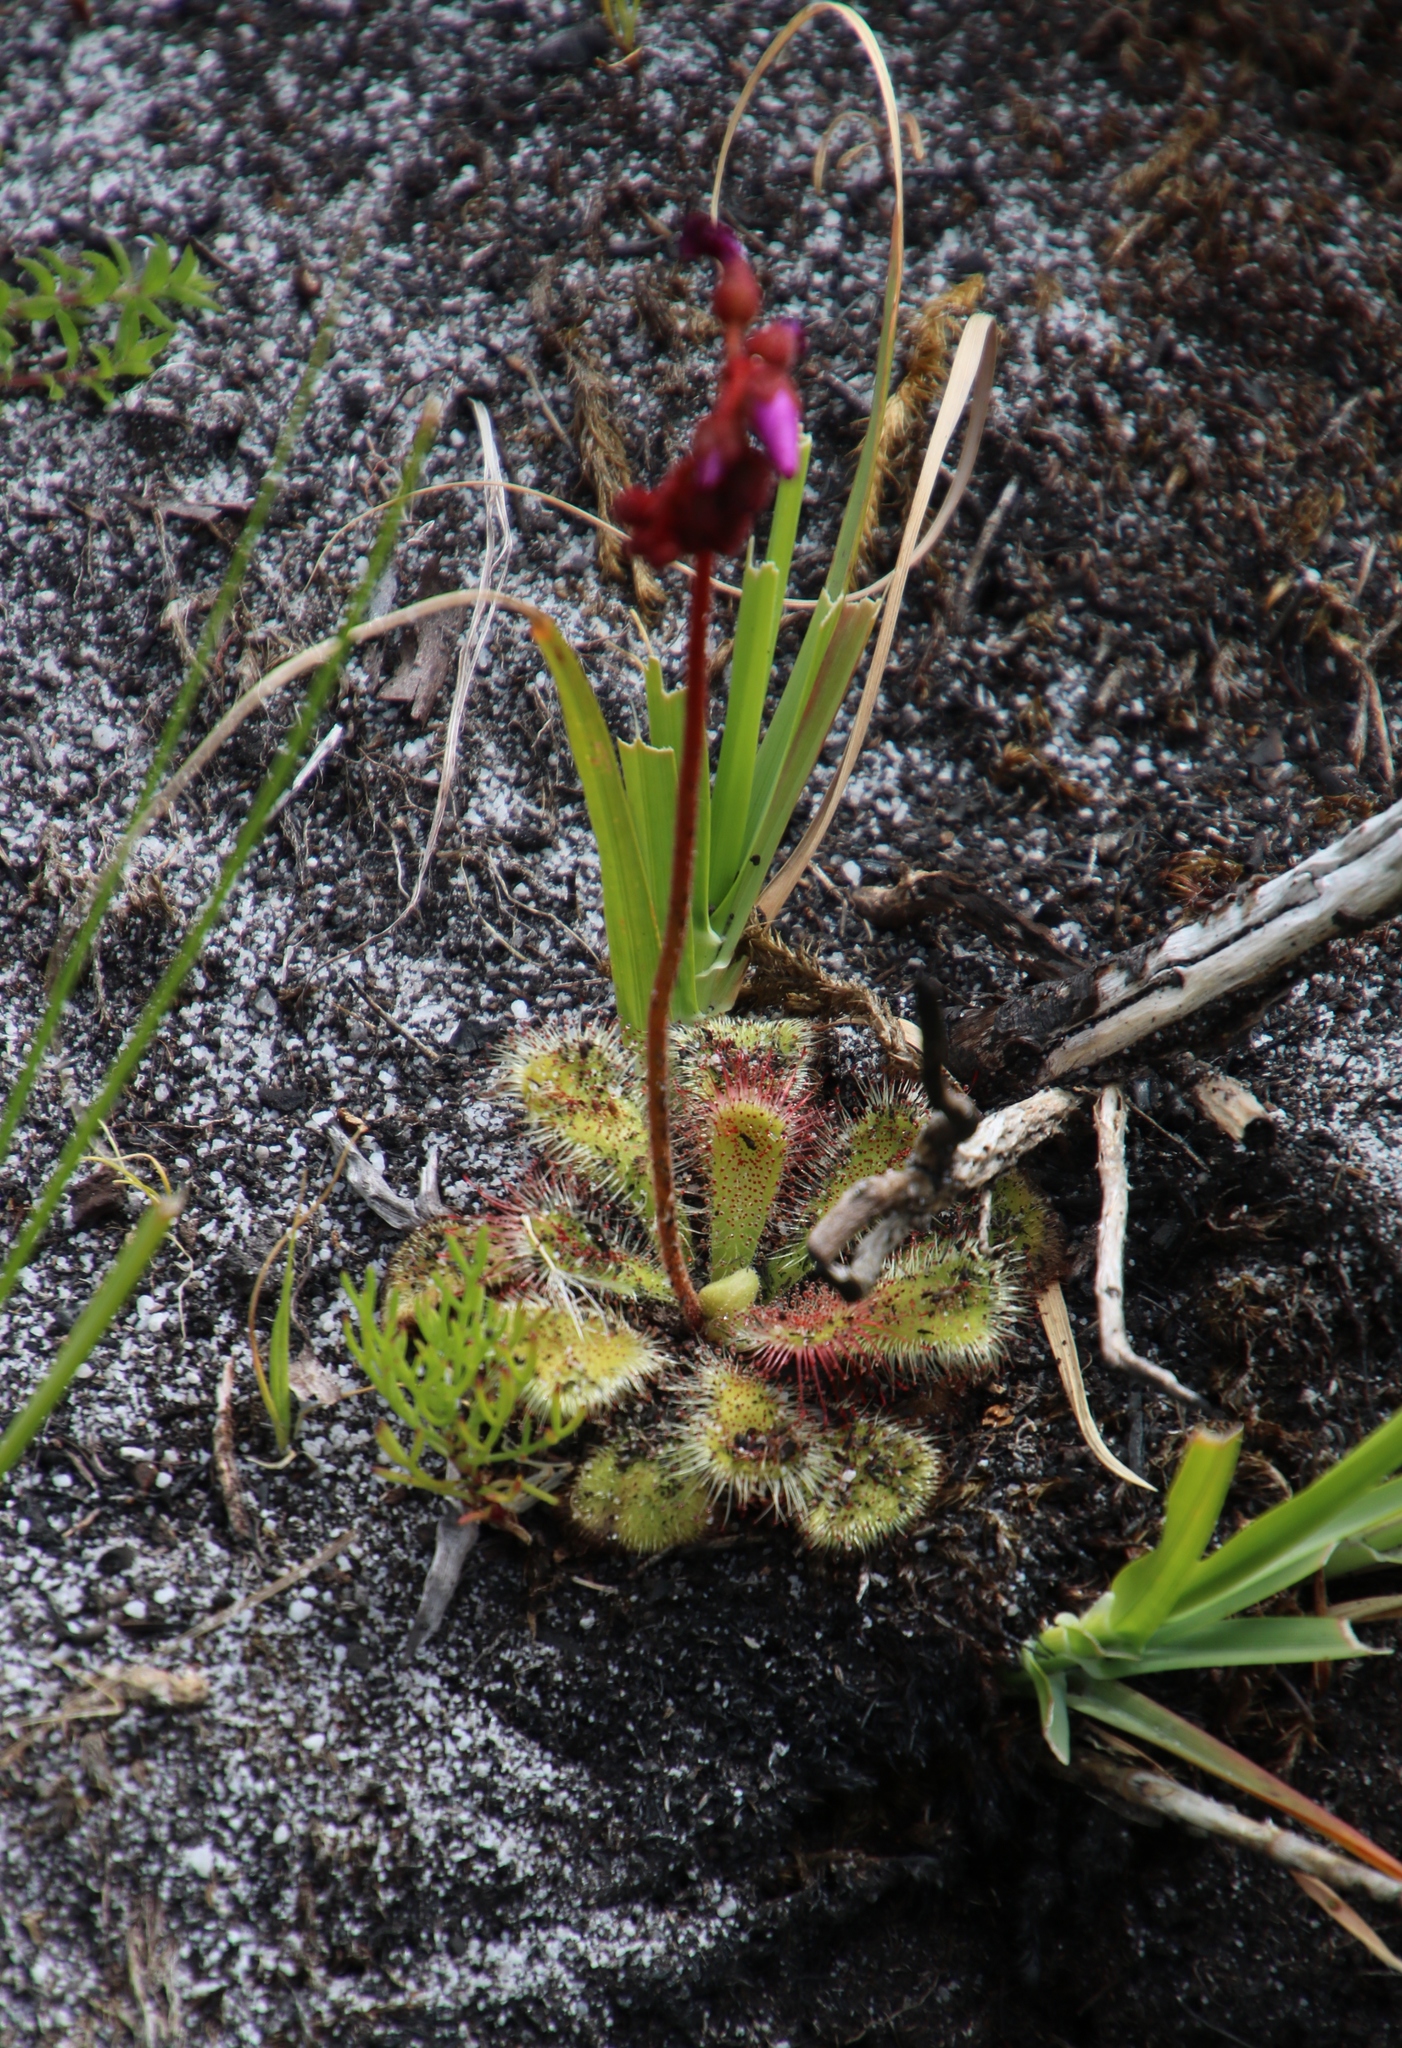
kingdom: Plantae
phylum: Tracheophyta
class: Magnoliopsida
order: Caryophyllales
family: Droseraceae
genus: Drosera
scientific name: Drosera cuneifolia
